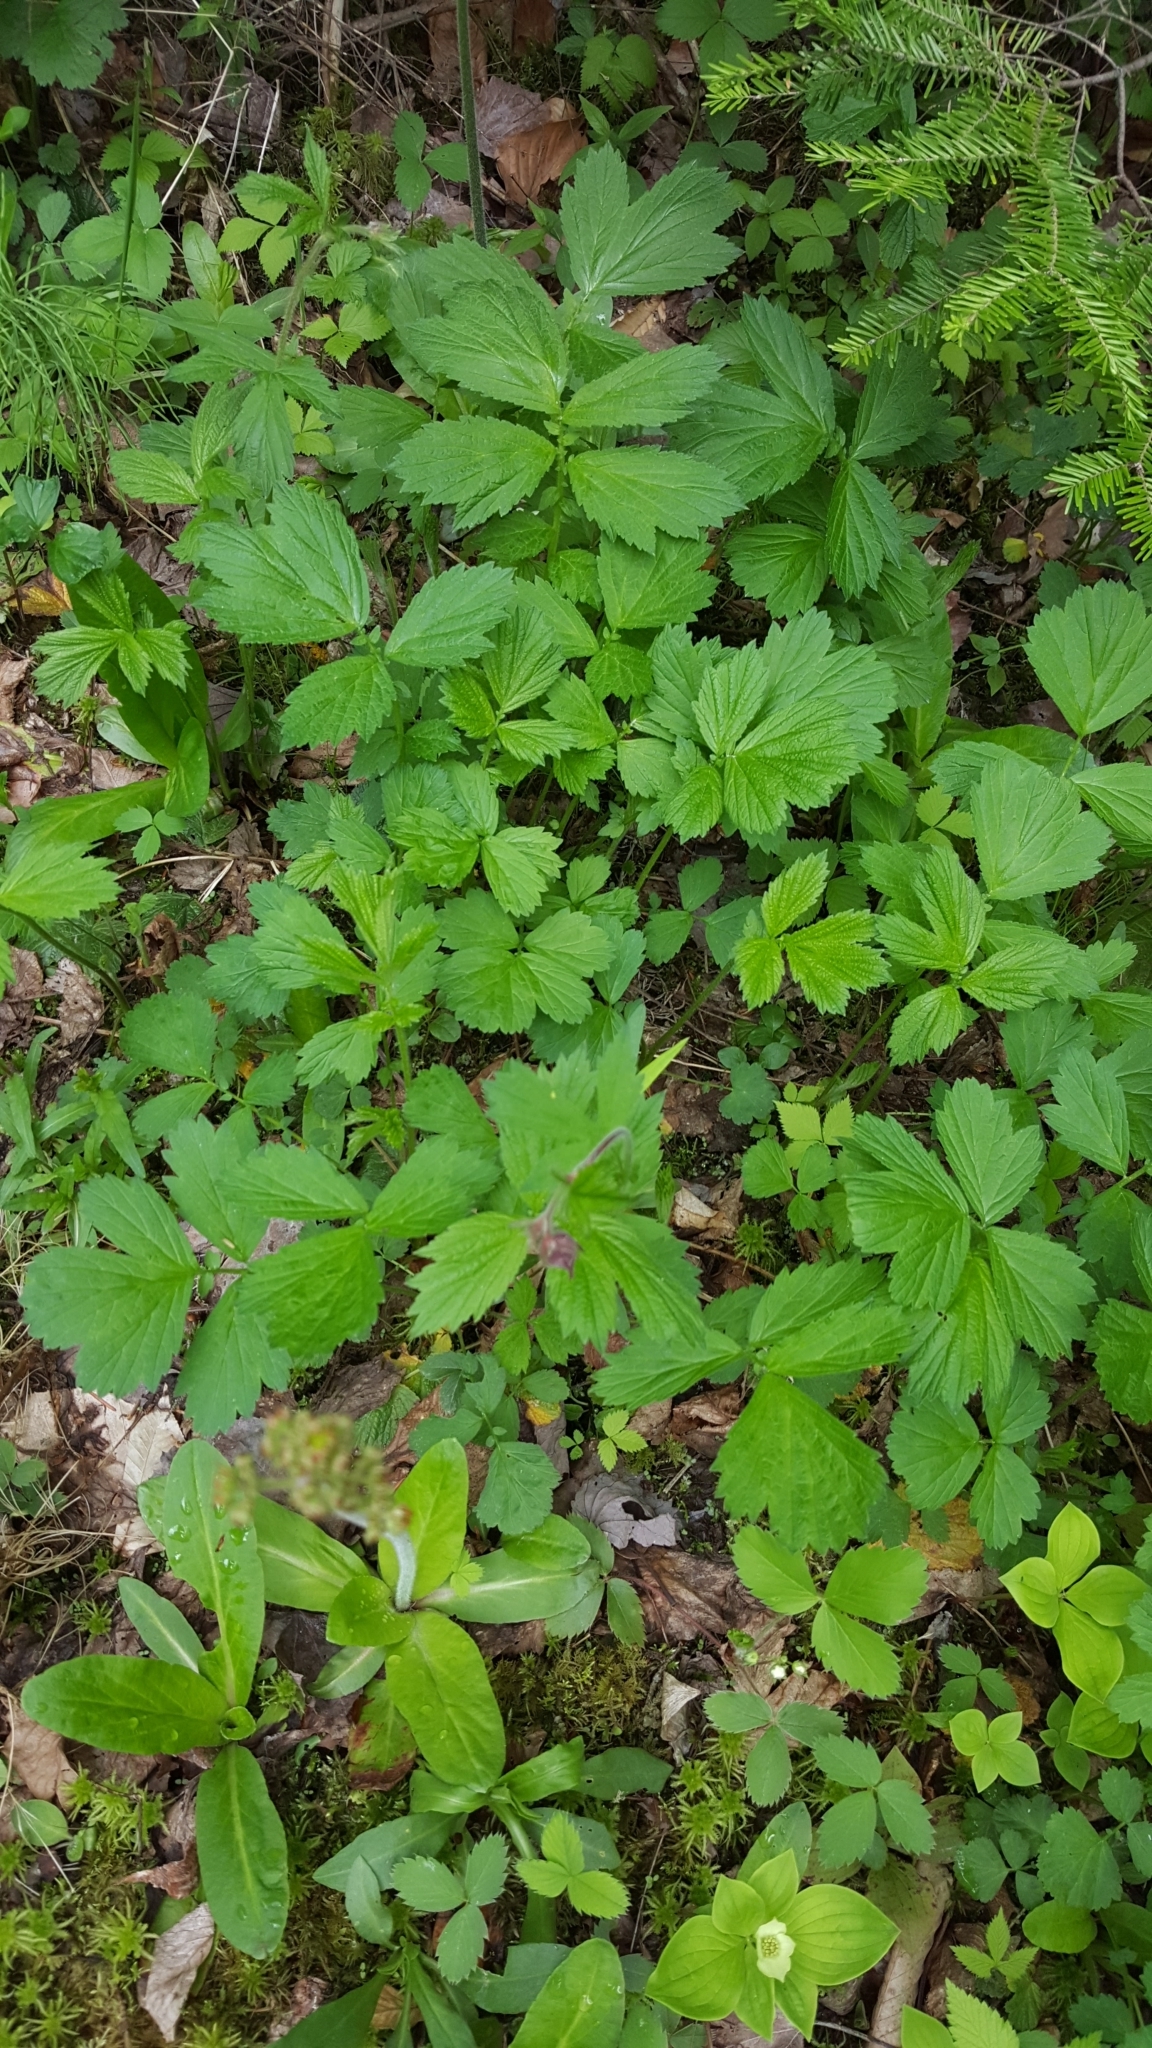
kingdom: Plantae
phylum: Tracheophyta
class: Magnoliopsida
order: Rosales
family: Rosaceae
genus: Geum
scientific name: Geum rivale
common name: Water avens
